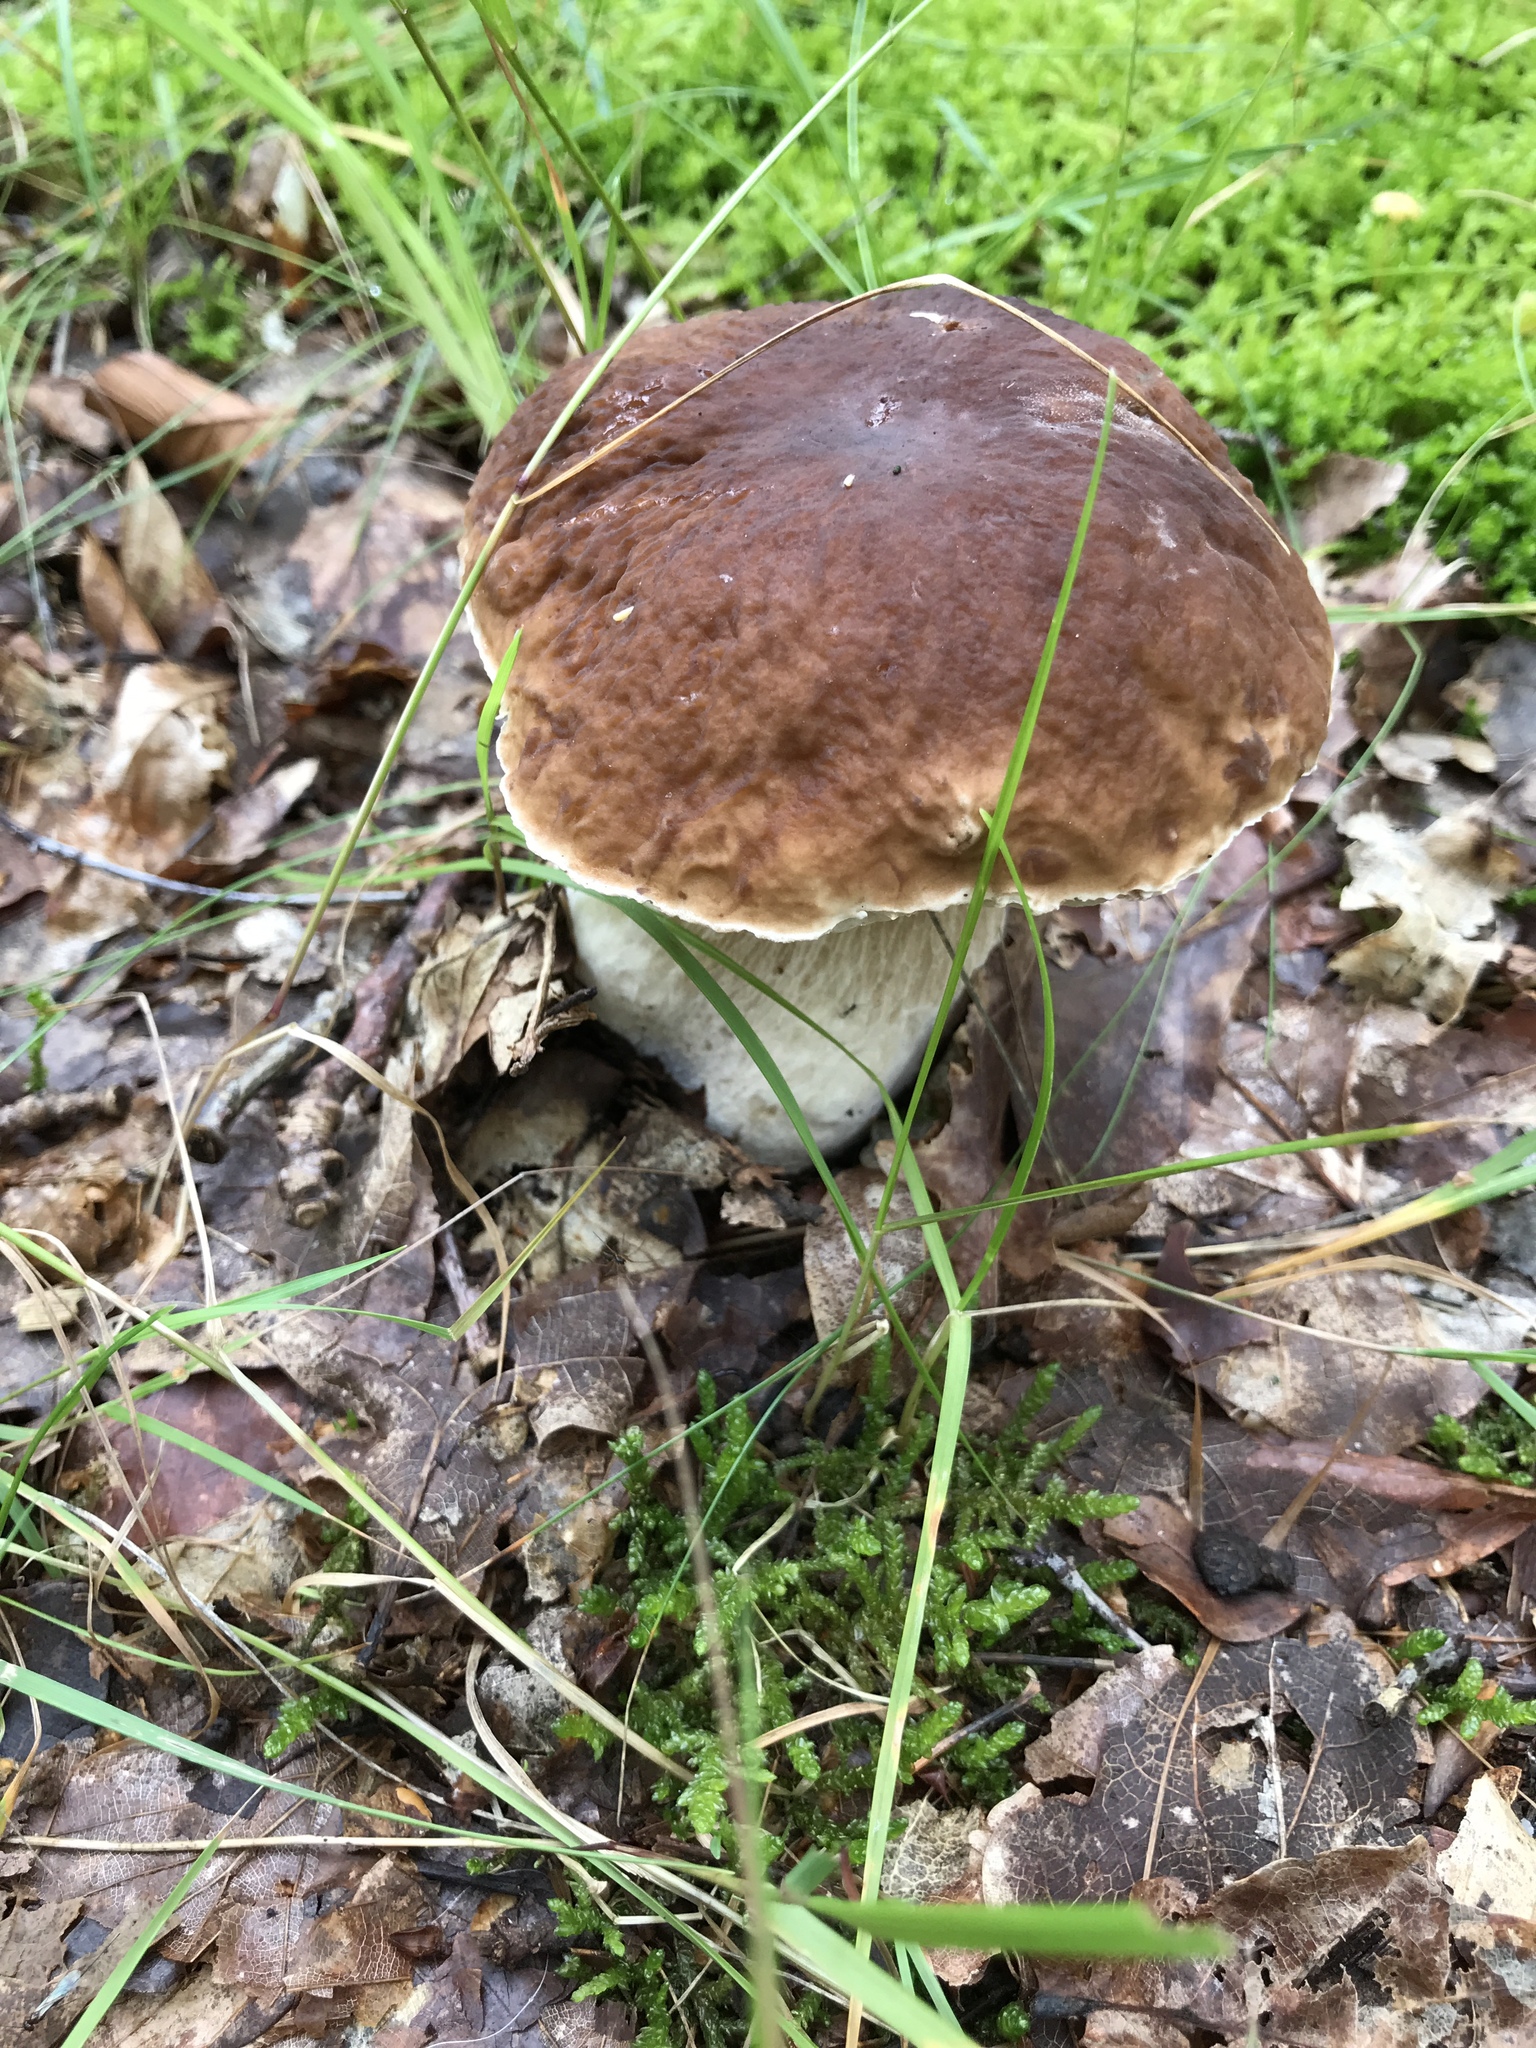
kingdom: Fungi
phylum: Basidiomycota
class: Agaricomycetes
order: Boletales
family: Boletaceae
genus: Boletus
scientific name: Boletus edulis
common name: Cep
